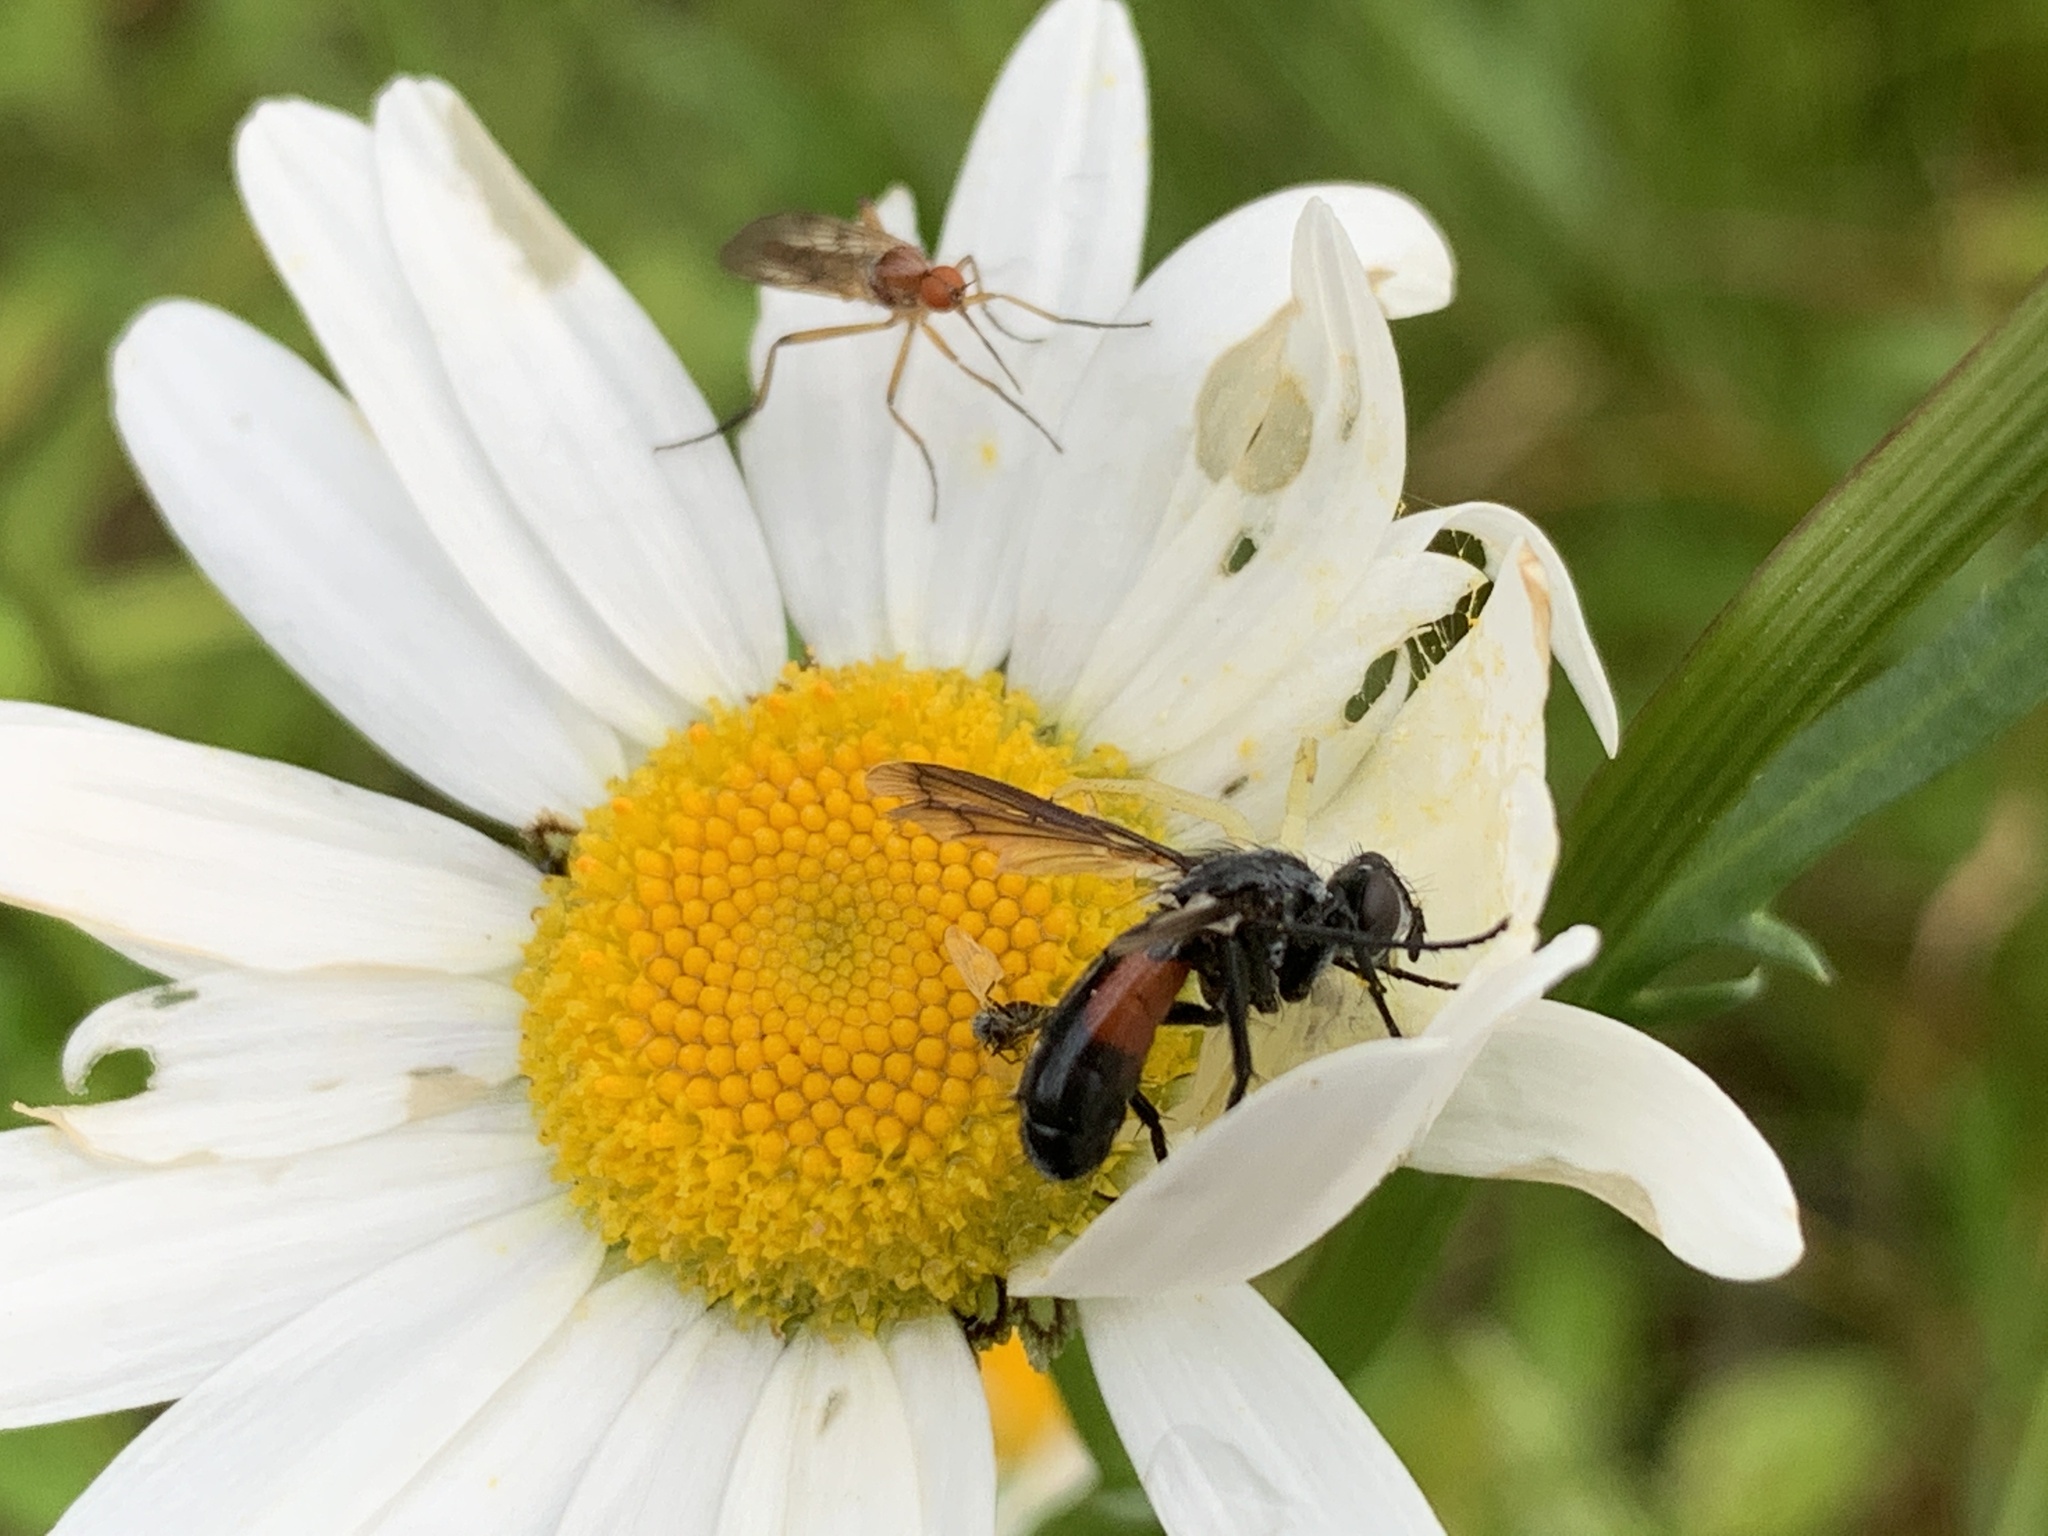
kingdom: Animalia
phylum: Arthropoda
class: Arachnida
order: Araneae
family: Thomisidae
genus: Misumena
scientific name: Misumena vatia
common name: Goldenrod crab spider
